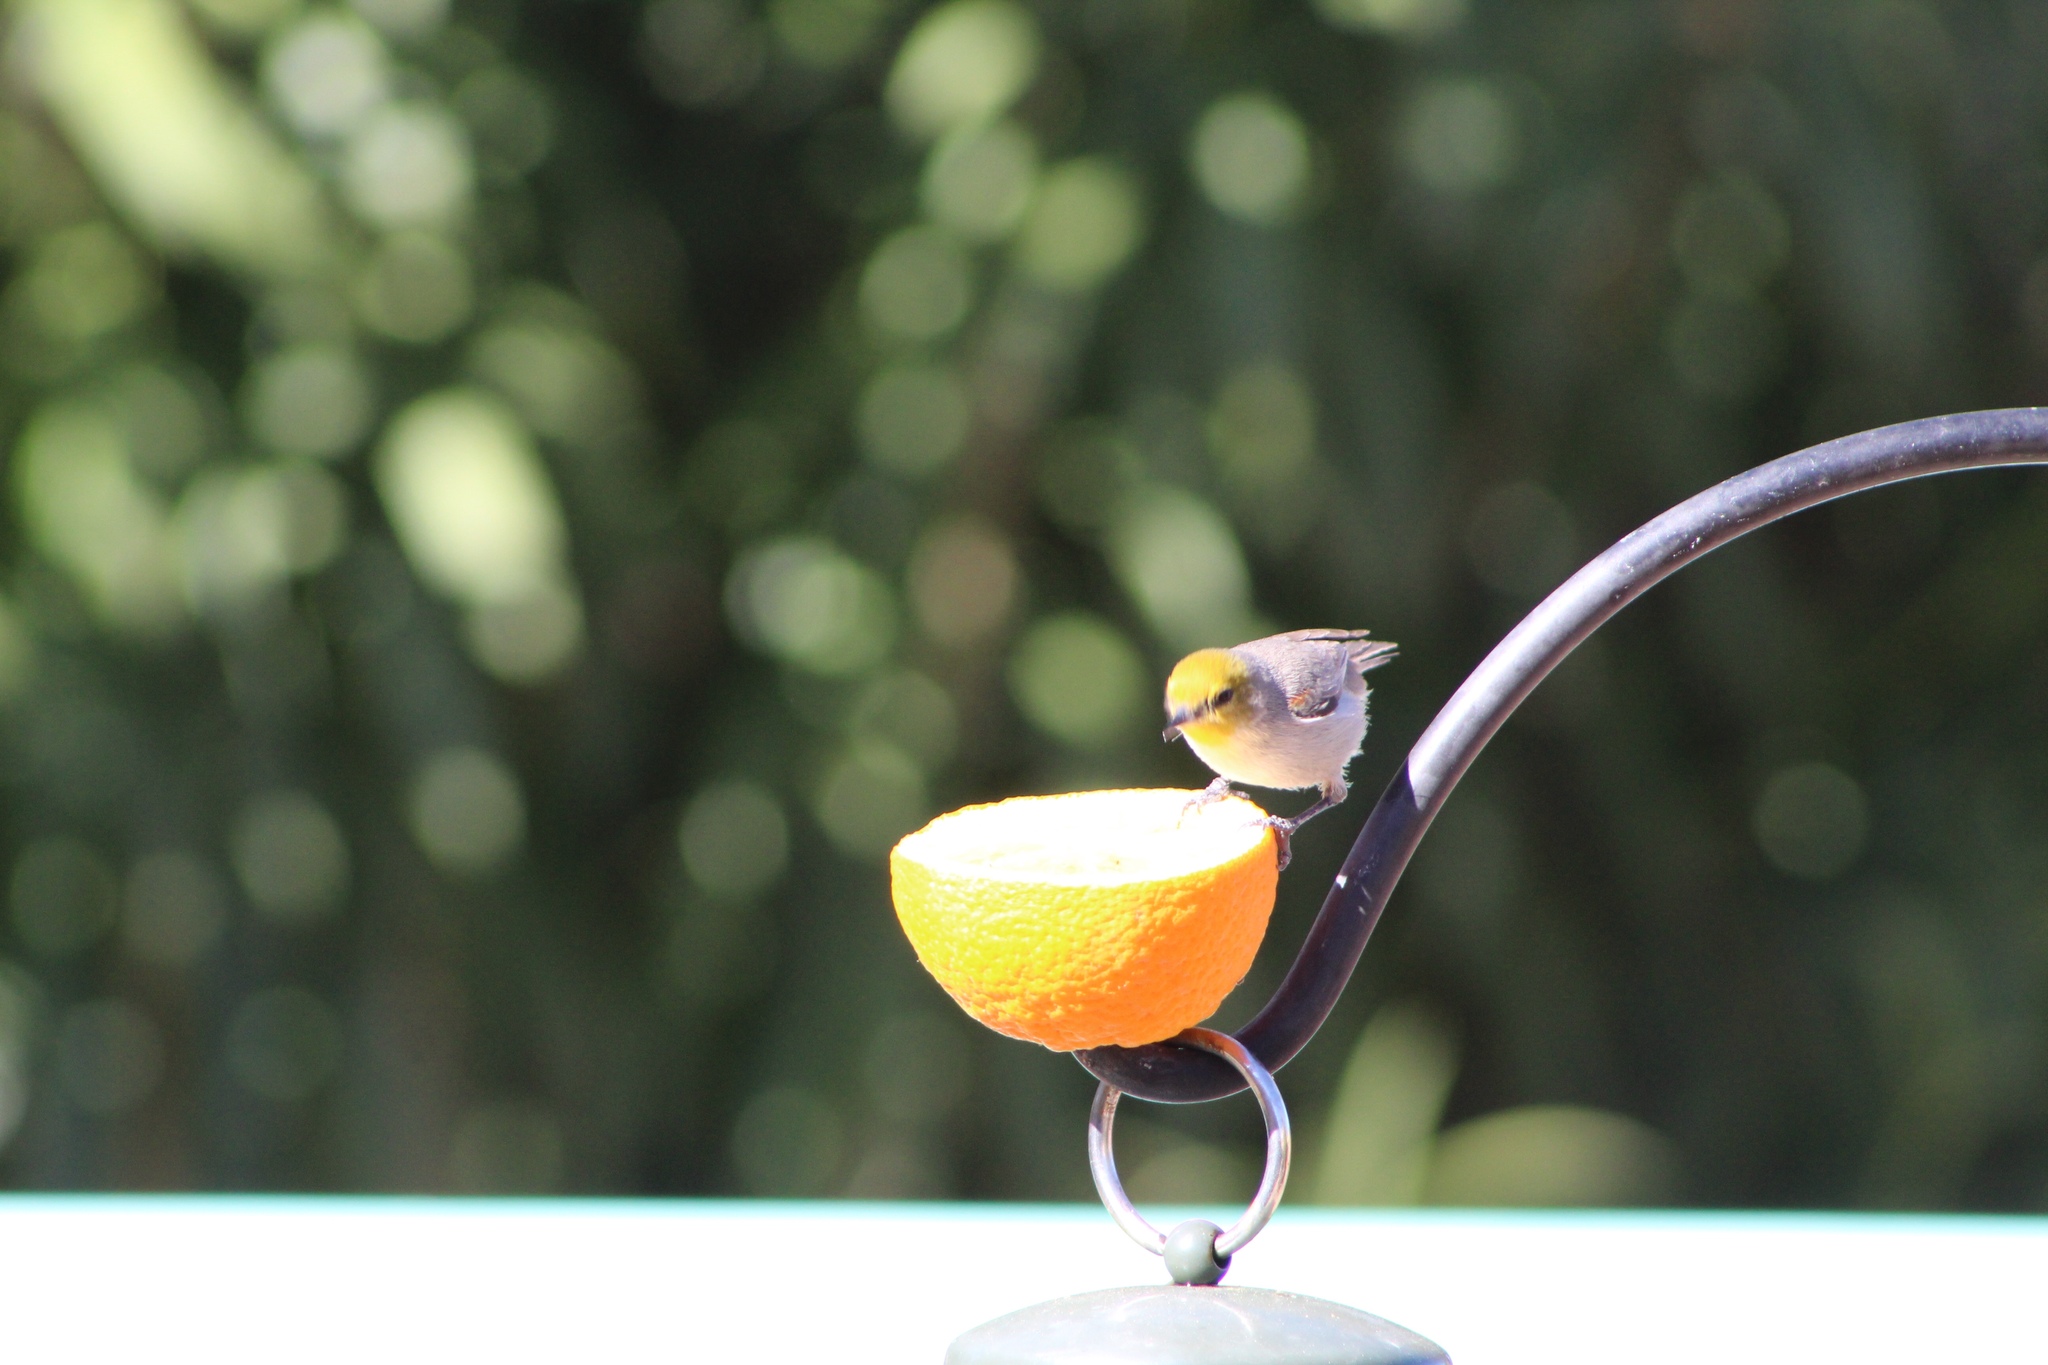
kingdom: Animalia
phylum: Chordata
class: Aves
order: Passeriformes
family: Remizidae
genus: Auriparus
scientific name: Auriparus flaviceps
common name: Verdin
